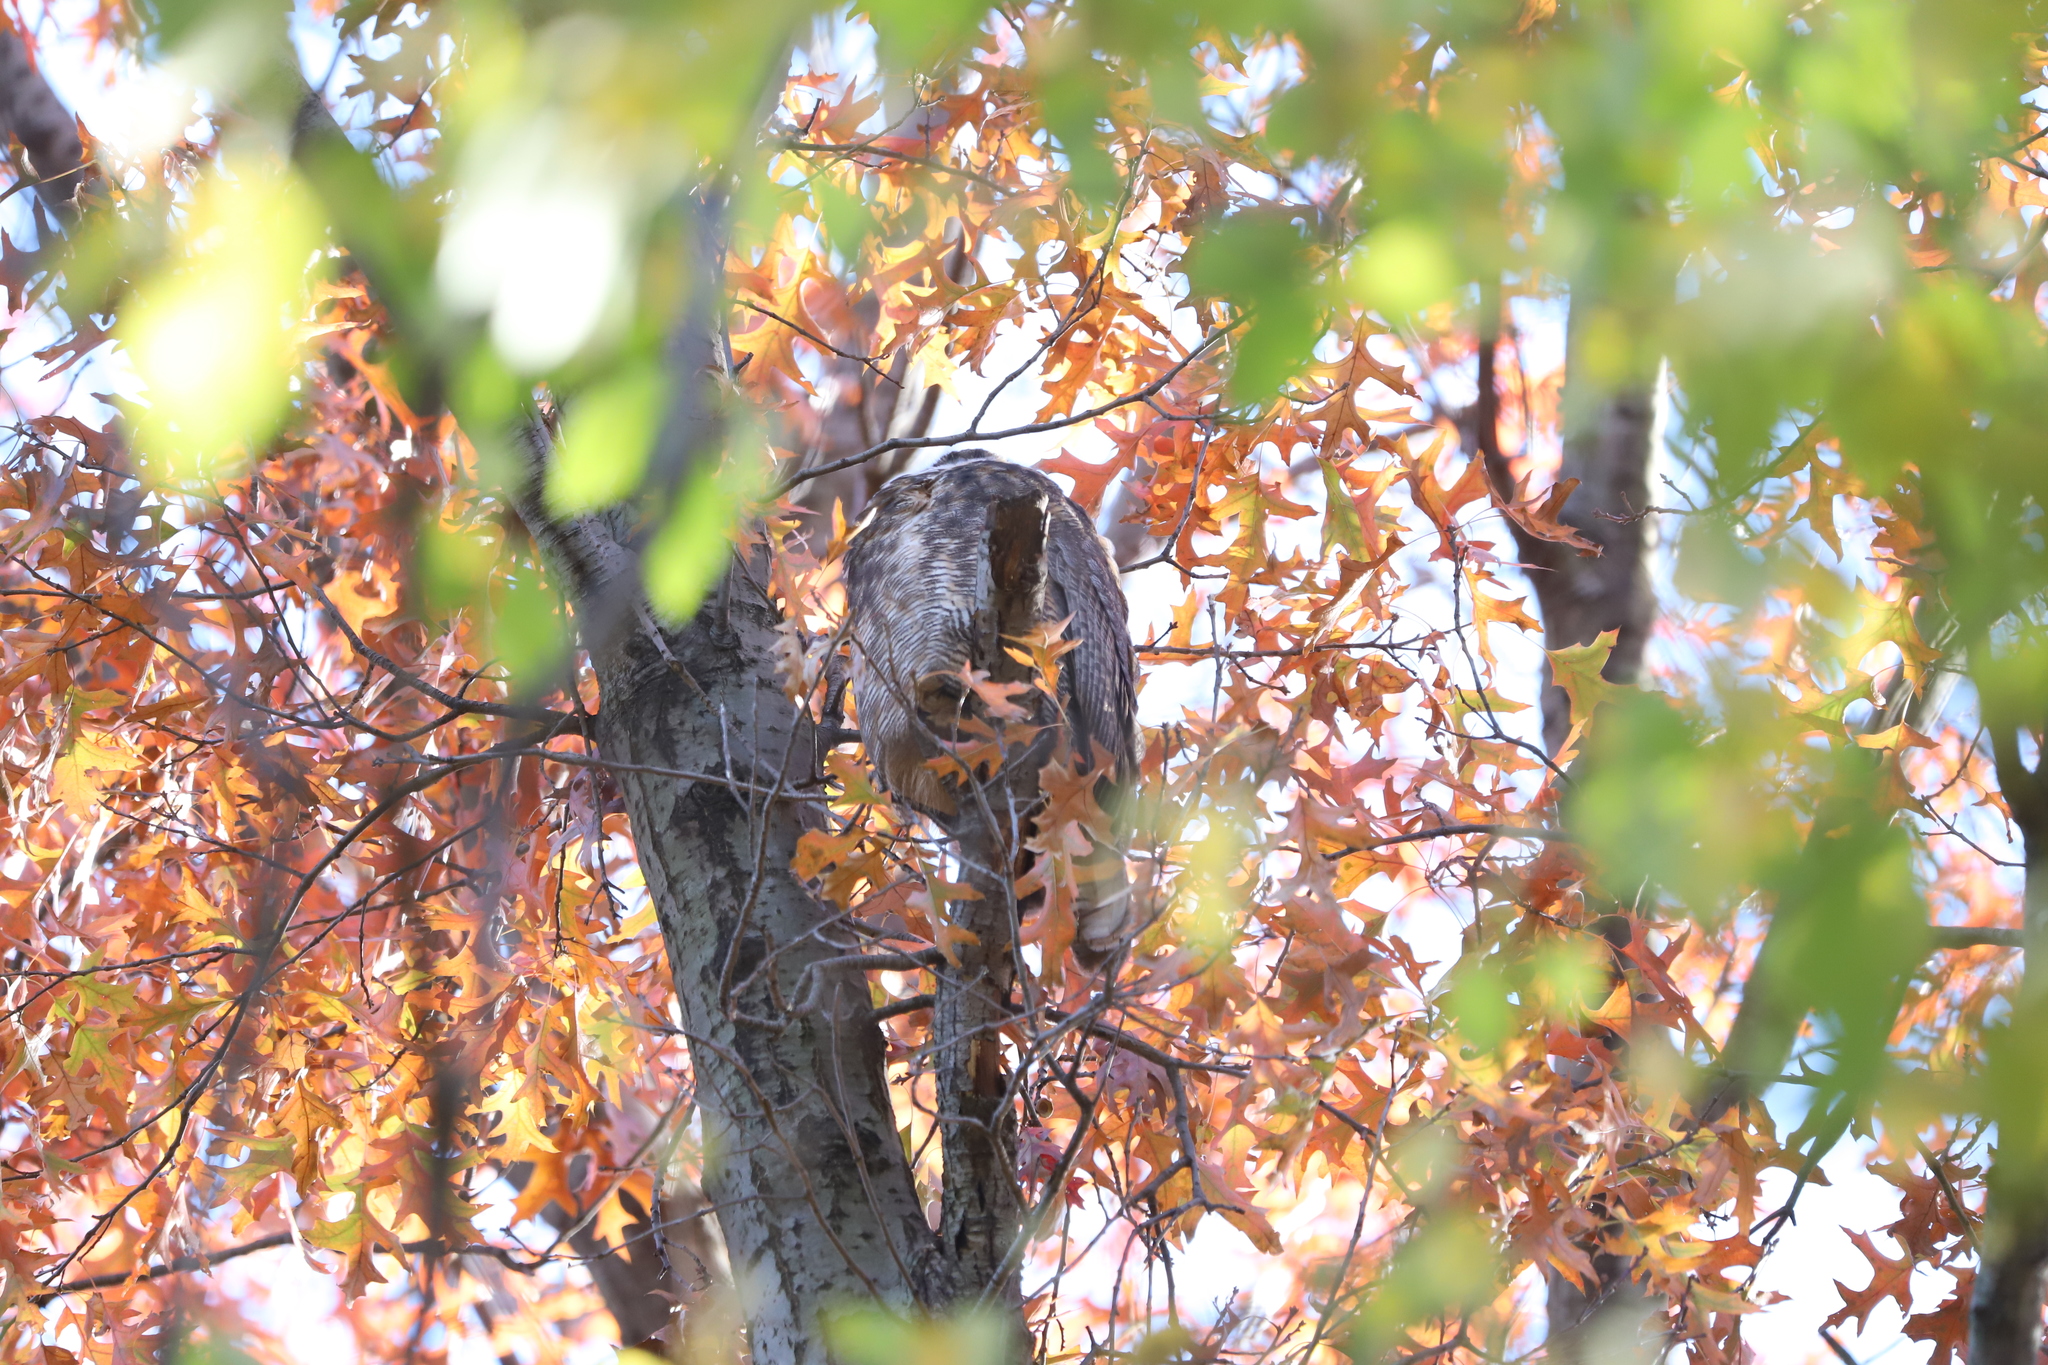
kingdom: Animalia
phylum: Chordata
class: Aves
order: Strigiformes
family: Strigidae
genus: Bubo
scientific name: Bubo virginianus
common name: Great horned owl
